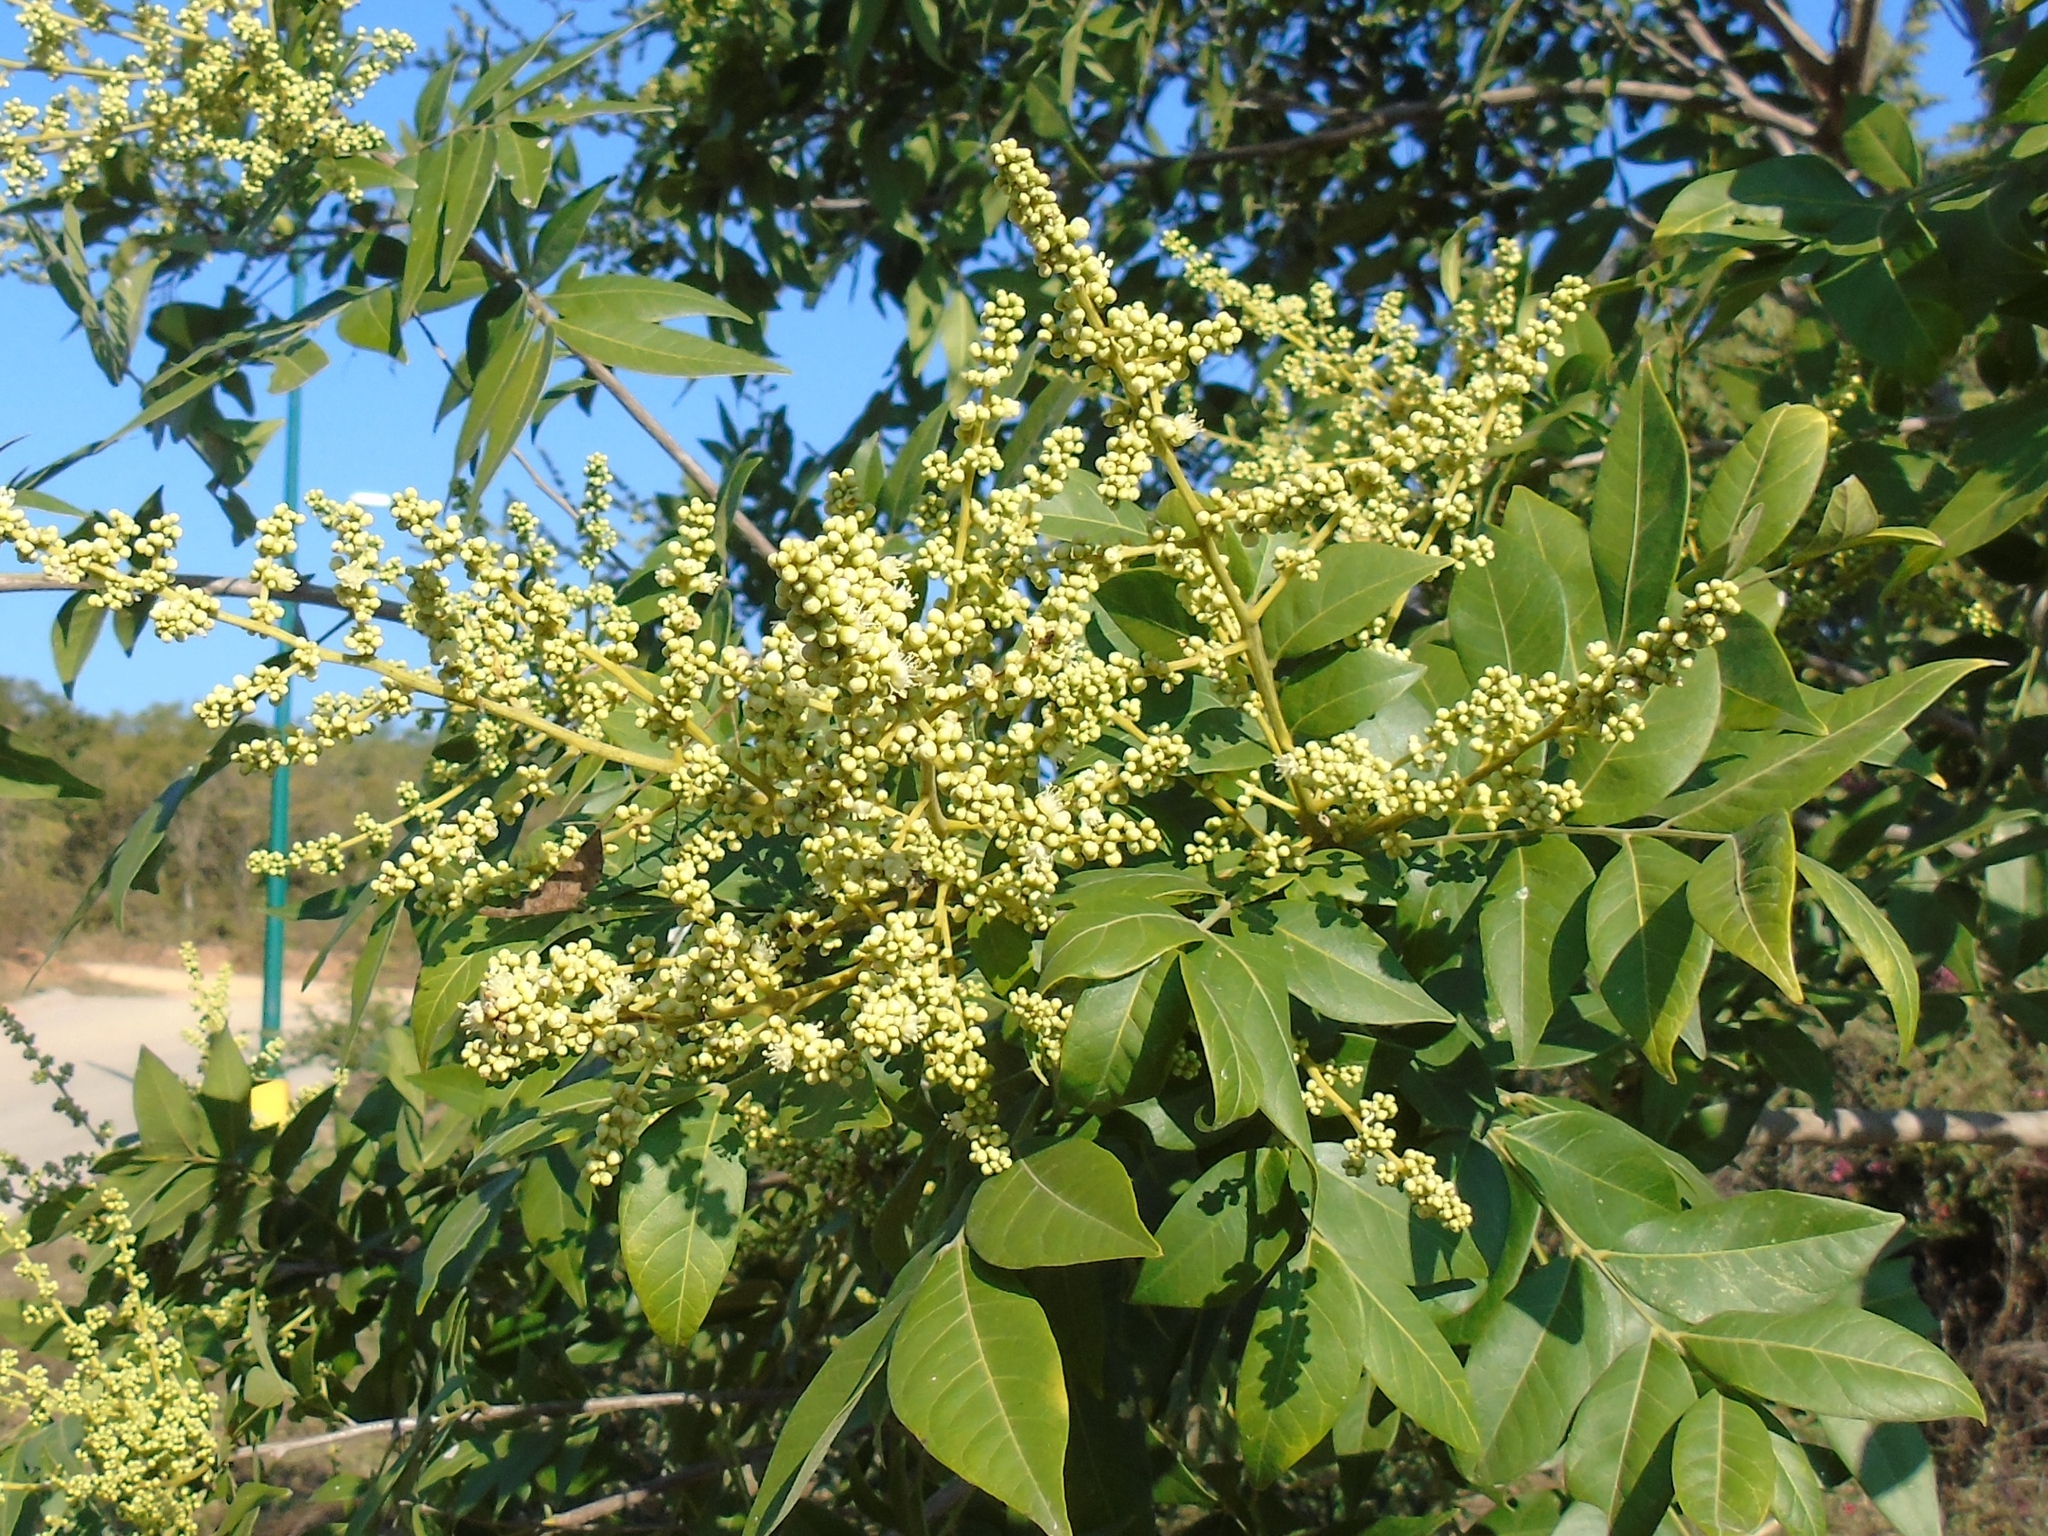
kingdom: Plantae
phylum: Tracheophyta
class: Magnoliopsida
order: Sapindales
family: Sapindaceae
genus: Sapindus
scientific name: Sapindus drummondii
